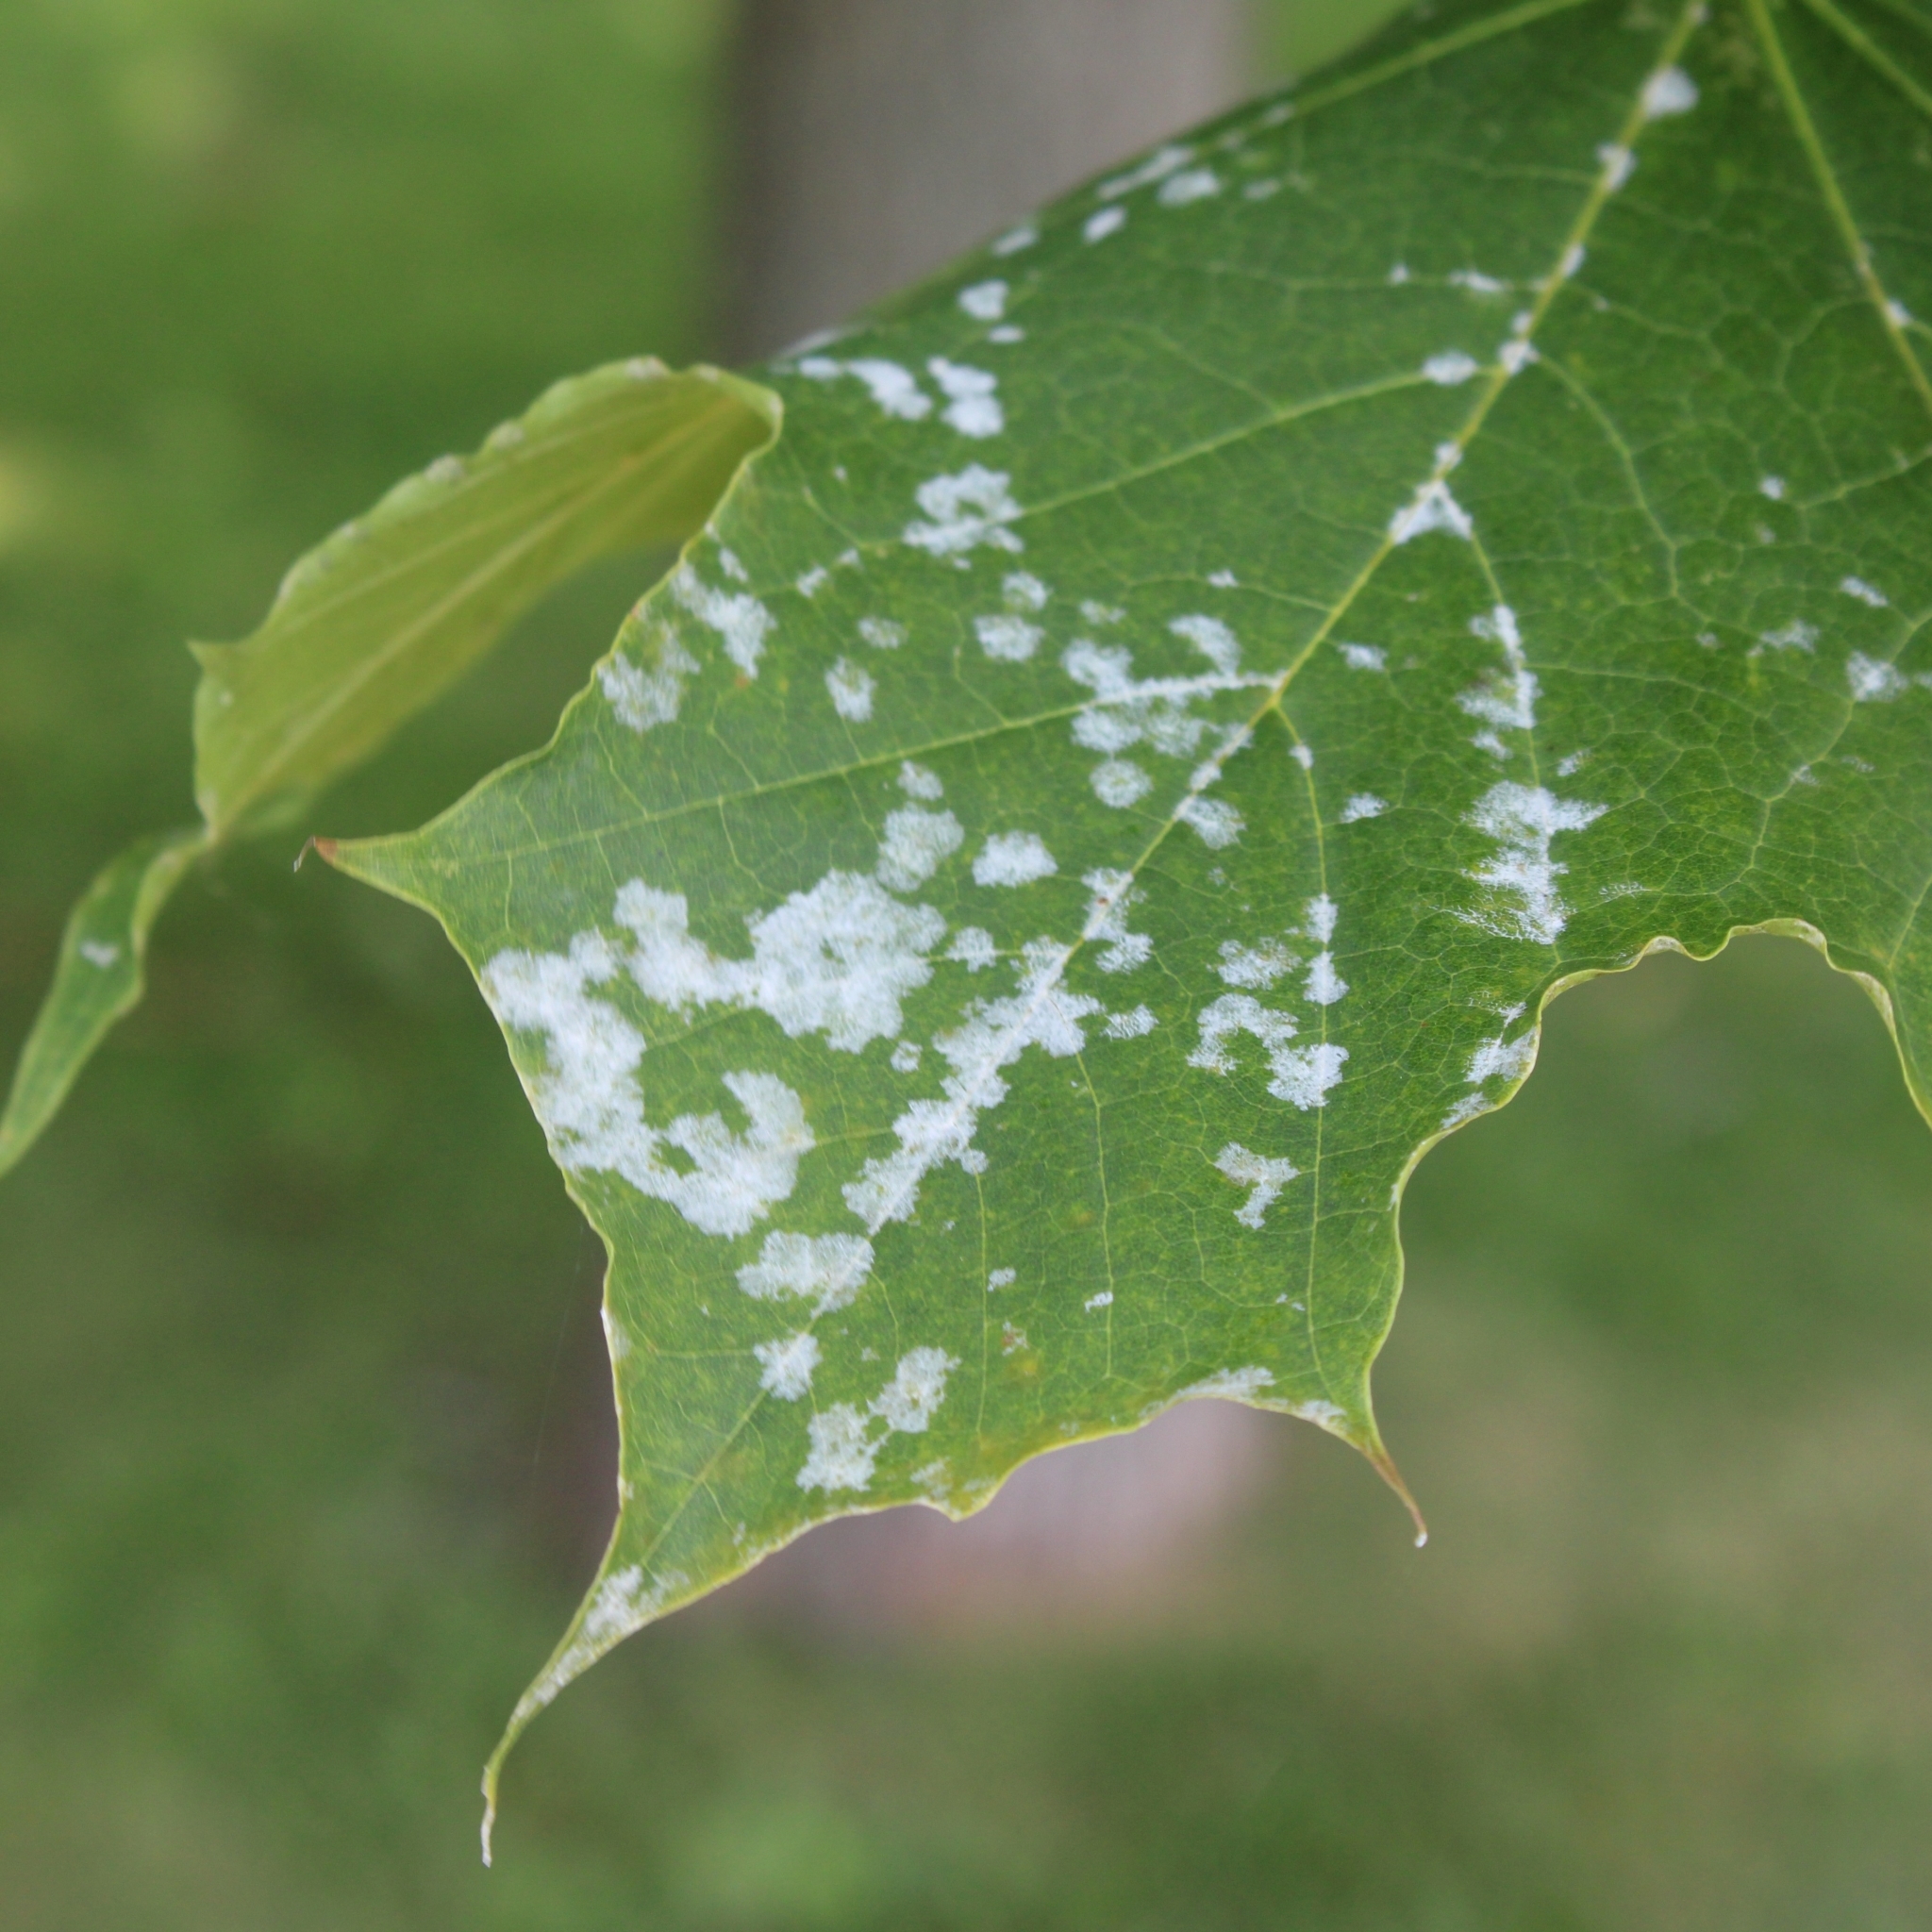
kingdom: Fungi
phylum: Ascomycota
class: Leotiomycetes
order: Helotiales
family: Erysiphaceae
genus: Sawadaea
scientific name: Sawadaea tulasnei
